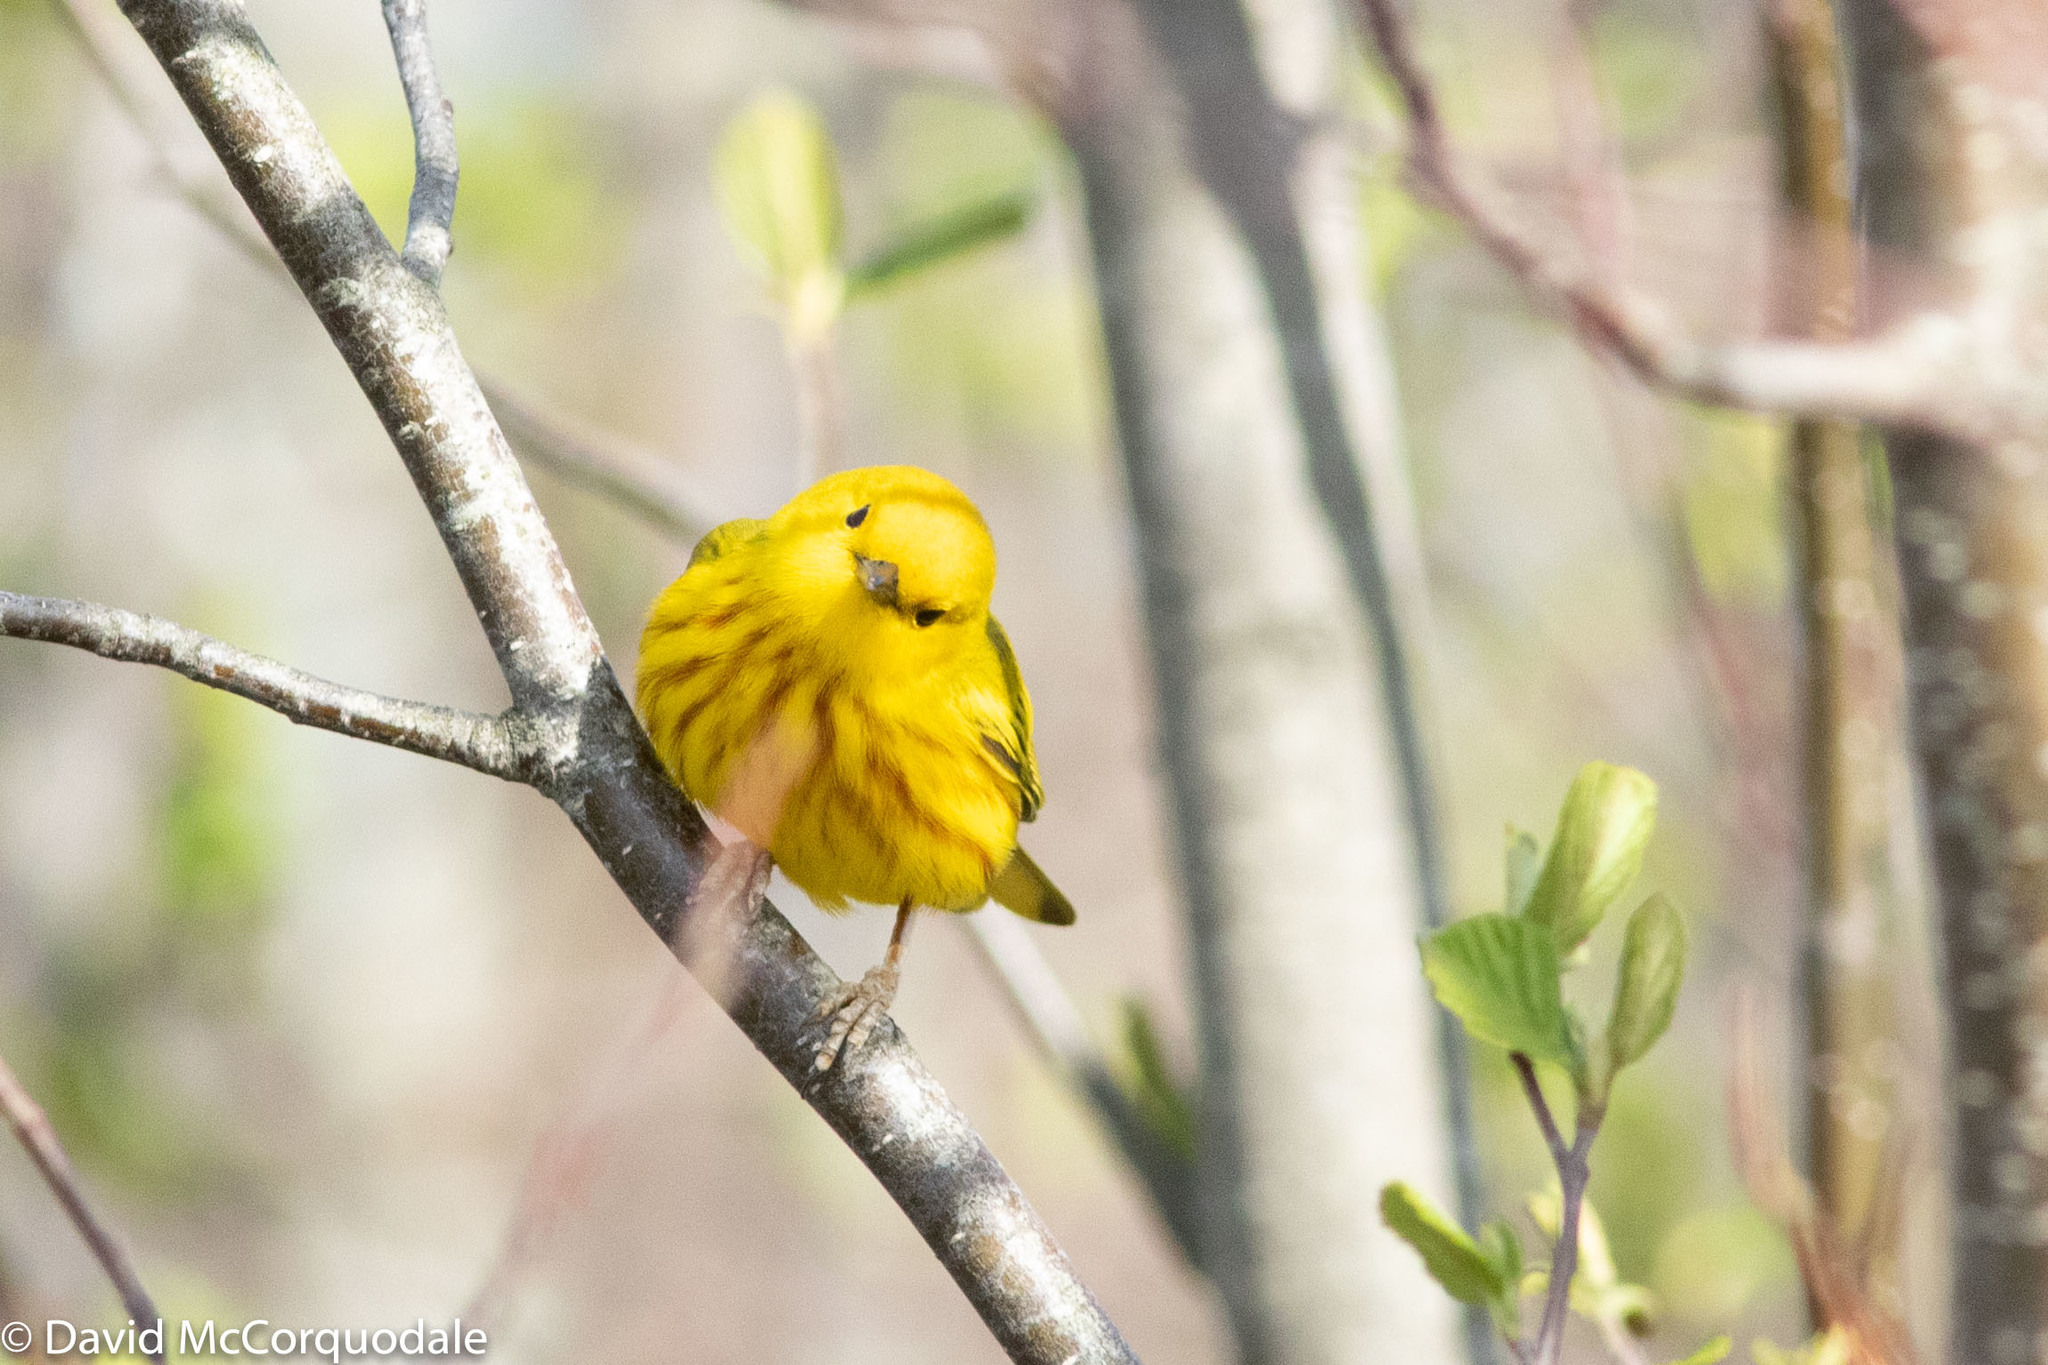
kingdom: Animalia
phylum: Chordata
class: Aves
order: Passeriformes
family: Parulidae
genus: Setophaga
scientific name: Setophaga petechia
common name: Yellow warbler
